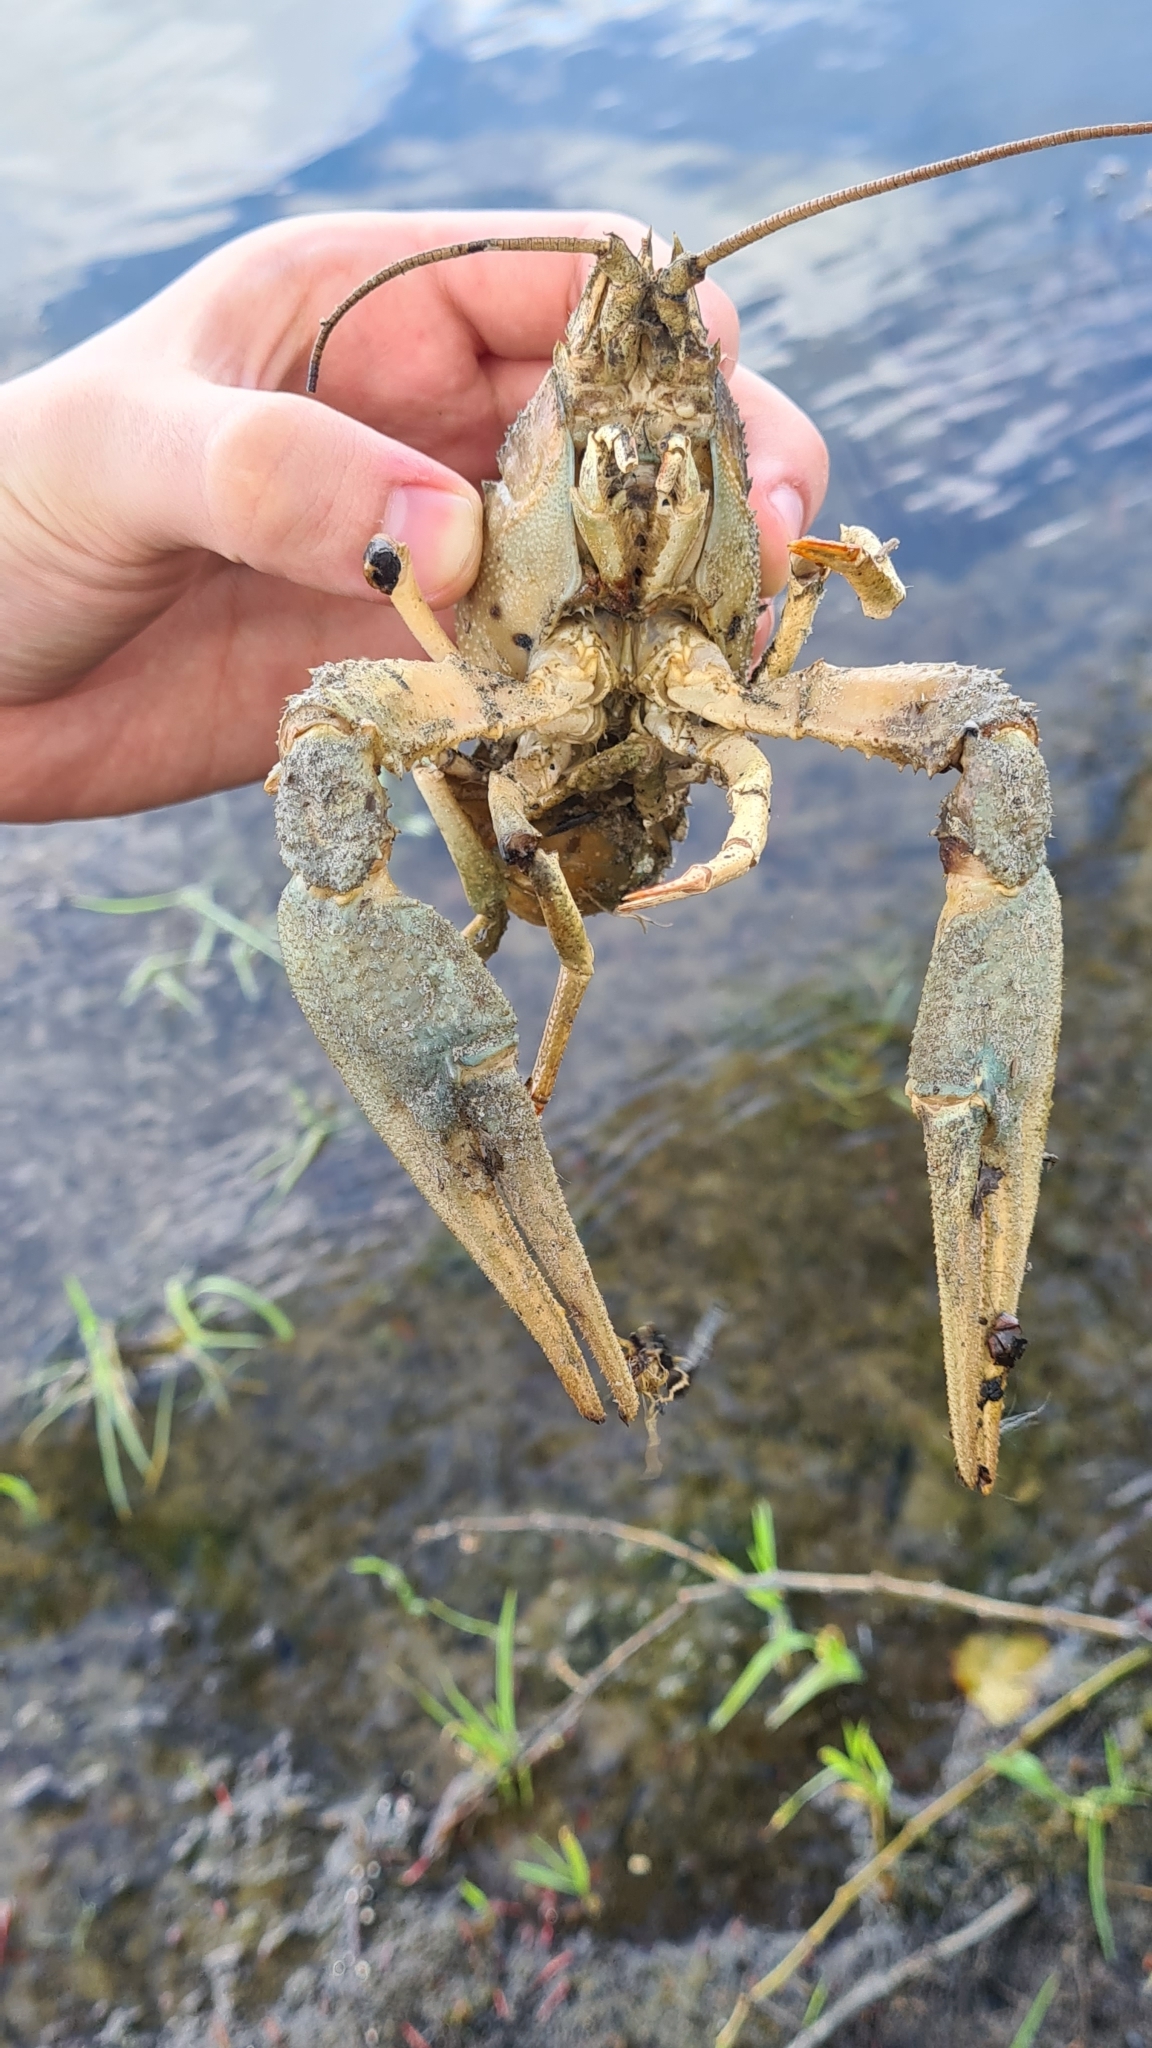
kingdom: Animalia
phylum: Arthropoda
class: Malacostraca
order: Decapoda
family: Astacidae
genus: Pontastacus
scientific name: Pontastacus leptodactylus
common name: Danube crayfish
